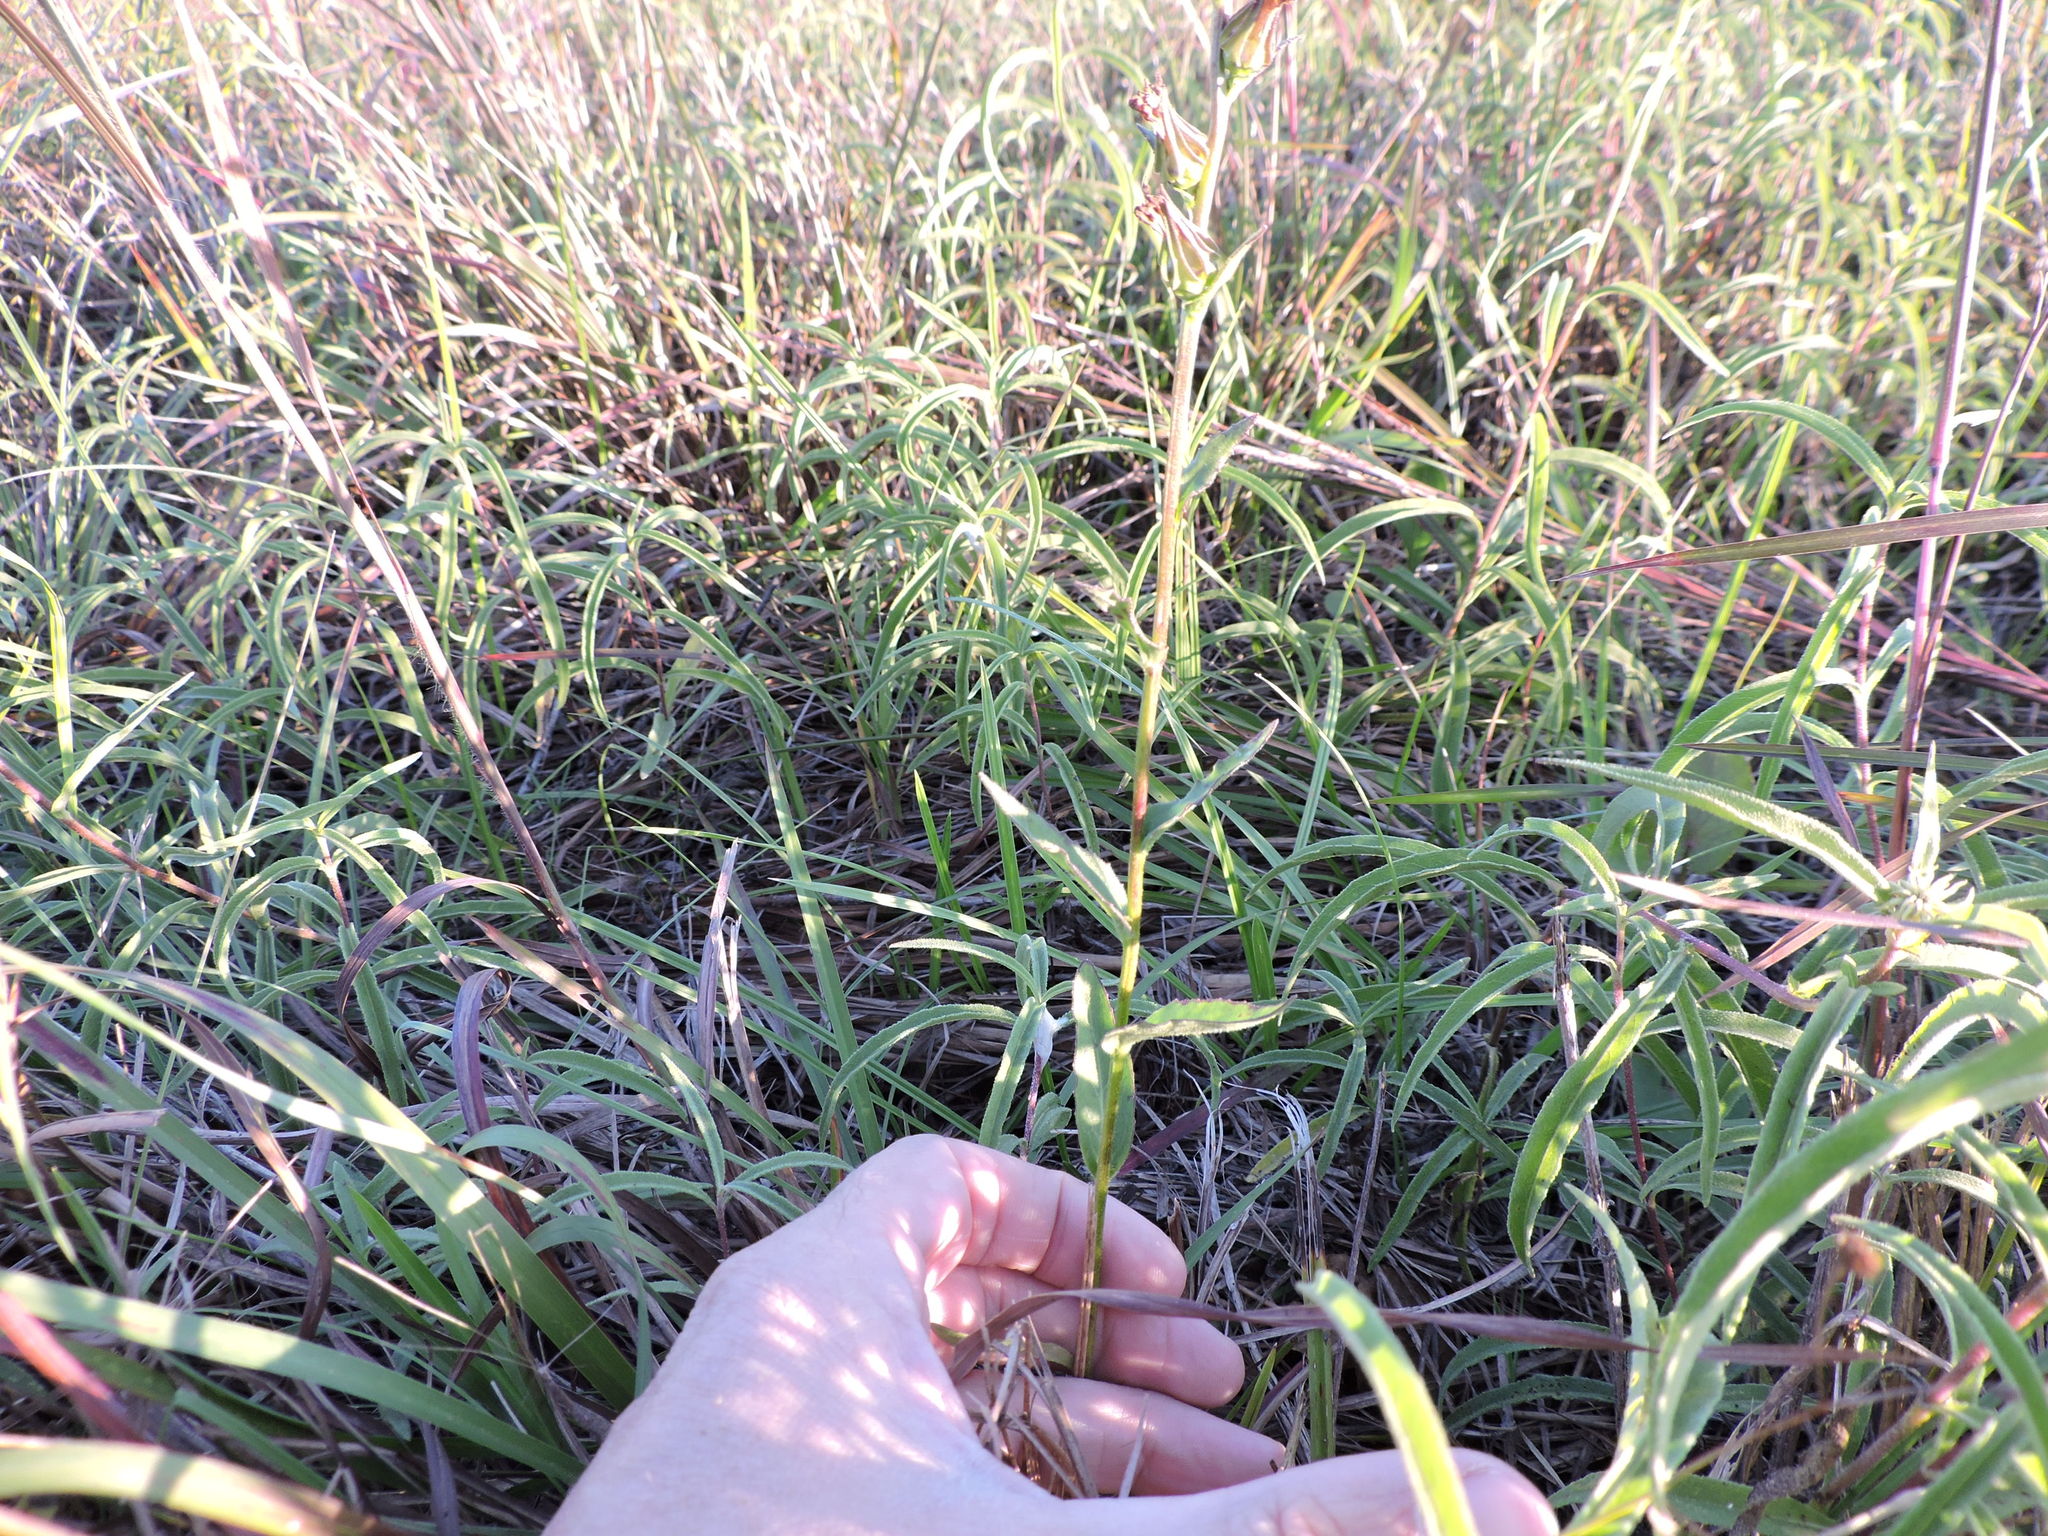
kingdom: Plantae
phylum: Tracheophyta
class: Magnoliopsida
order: Asterales
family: Campanulaceae
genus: Lobelia
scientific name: Lobelia puberula
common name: Purple dewdrop
